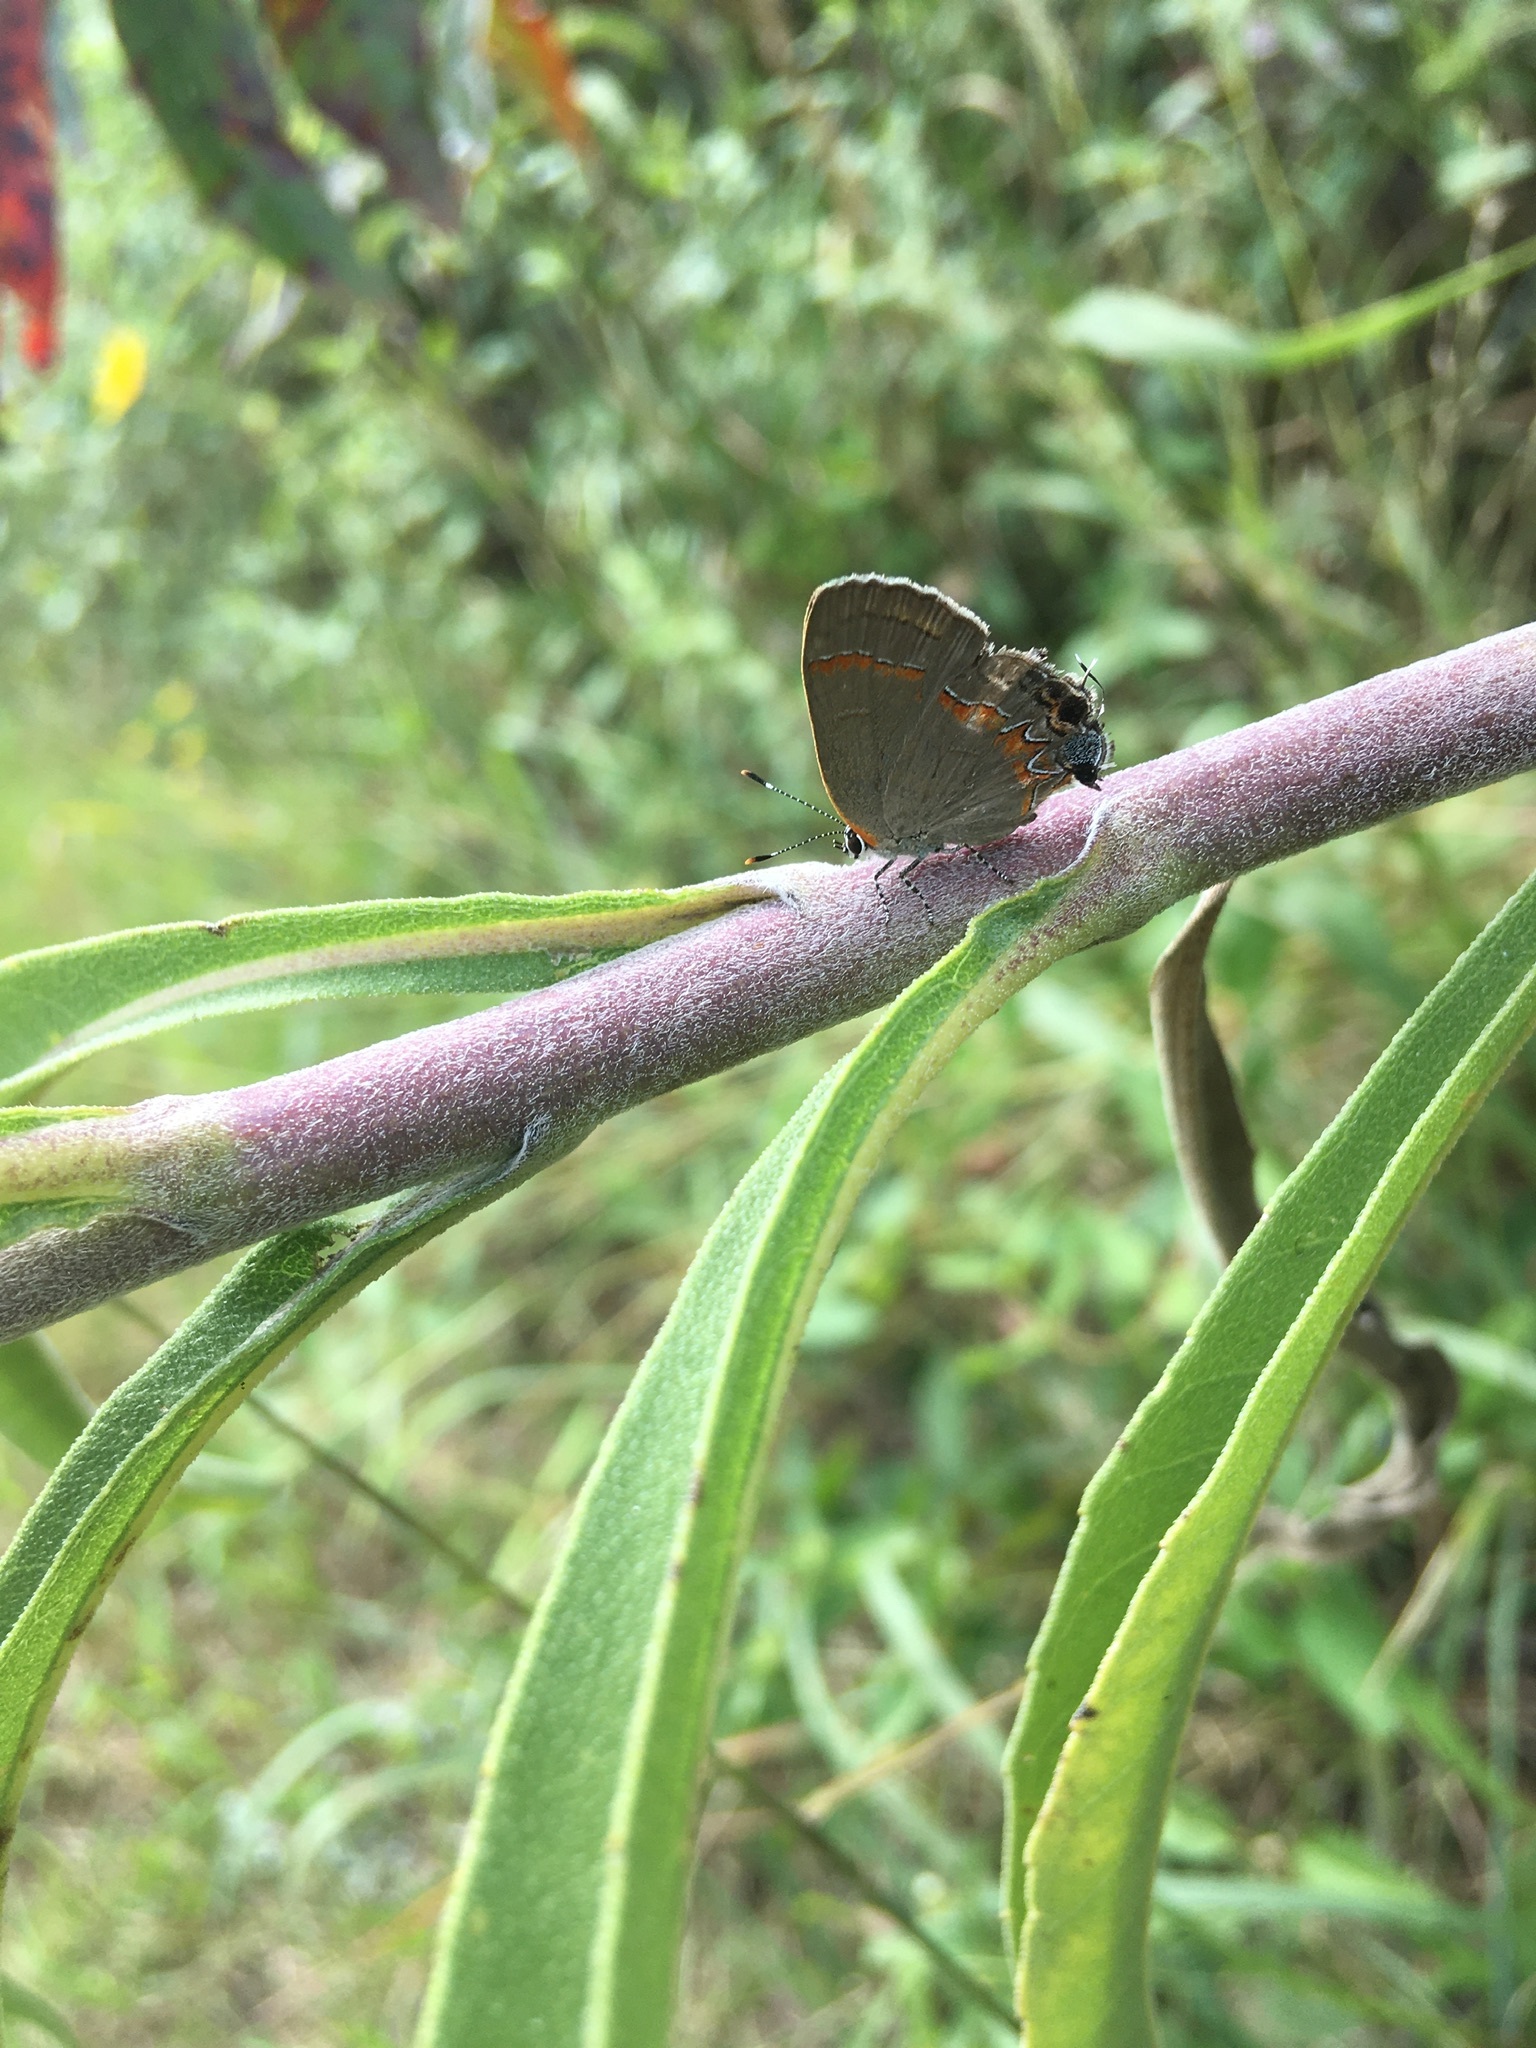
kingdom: Animalia
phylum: Arthropoda
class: Insecta
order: Lepidoptera
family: Lycaenidae
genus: Calycopis
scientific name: Calycopis cecrops
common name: Red-banded hairstreak
